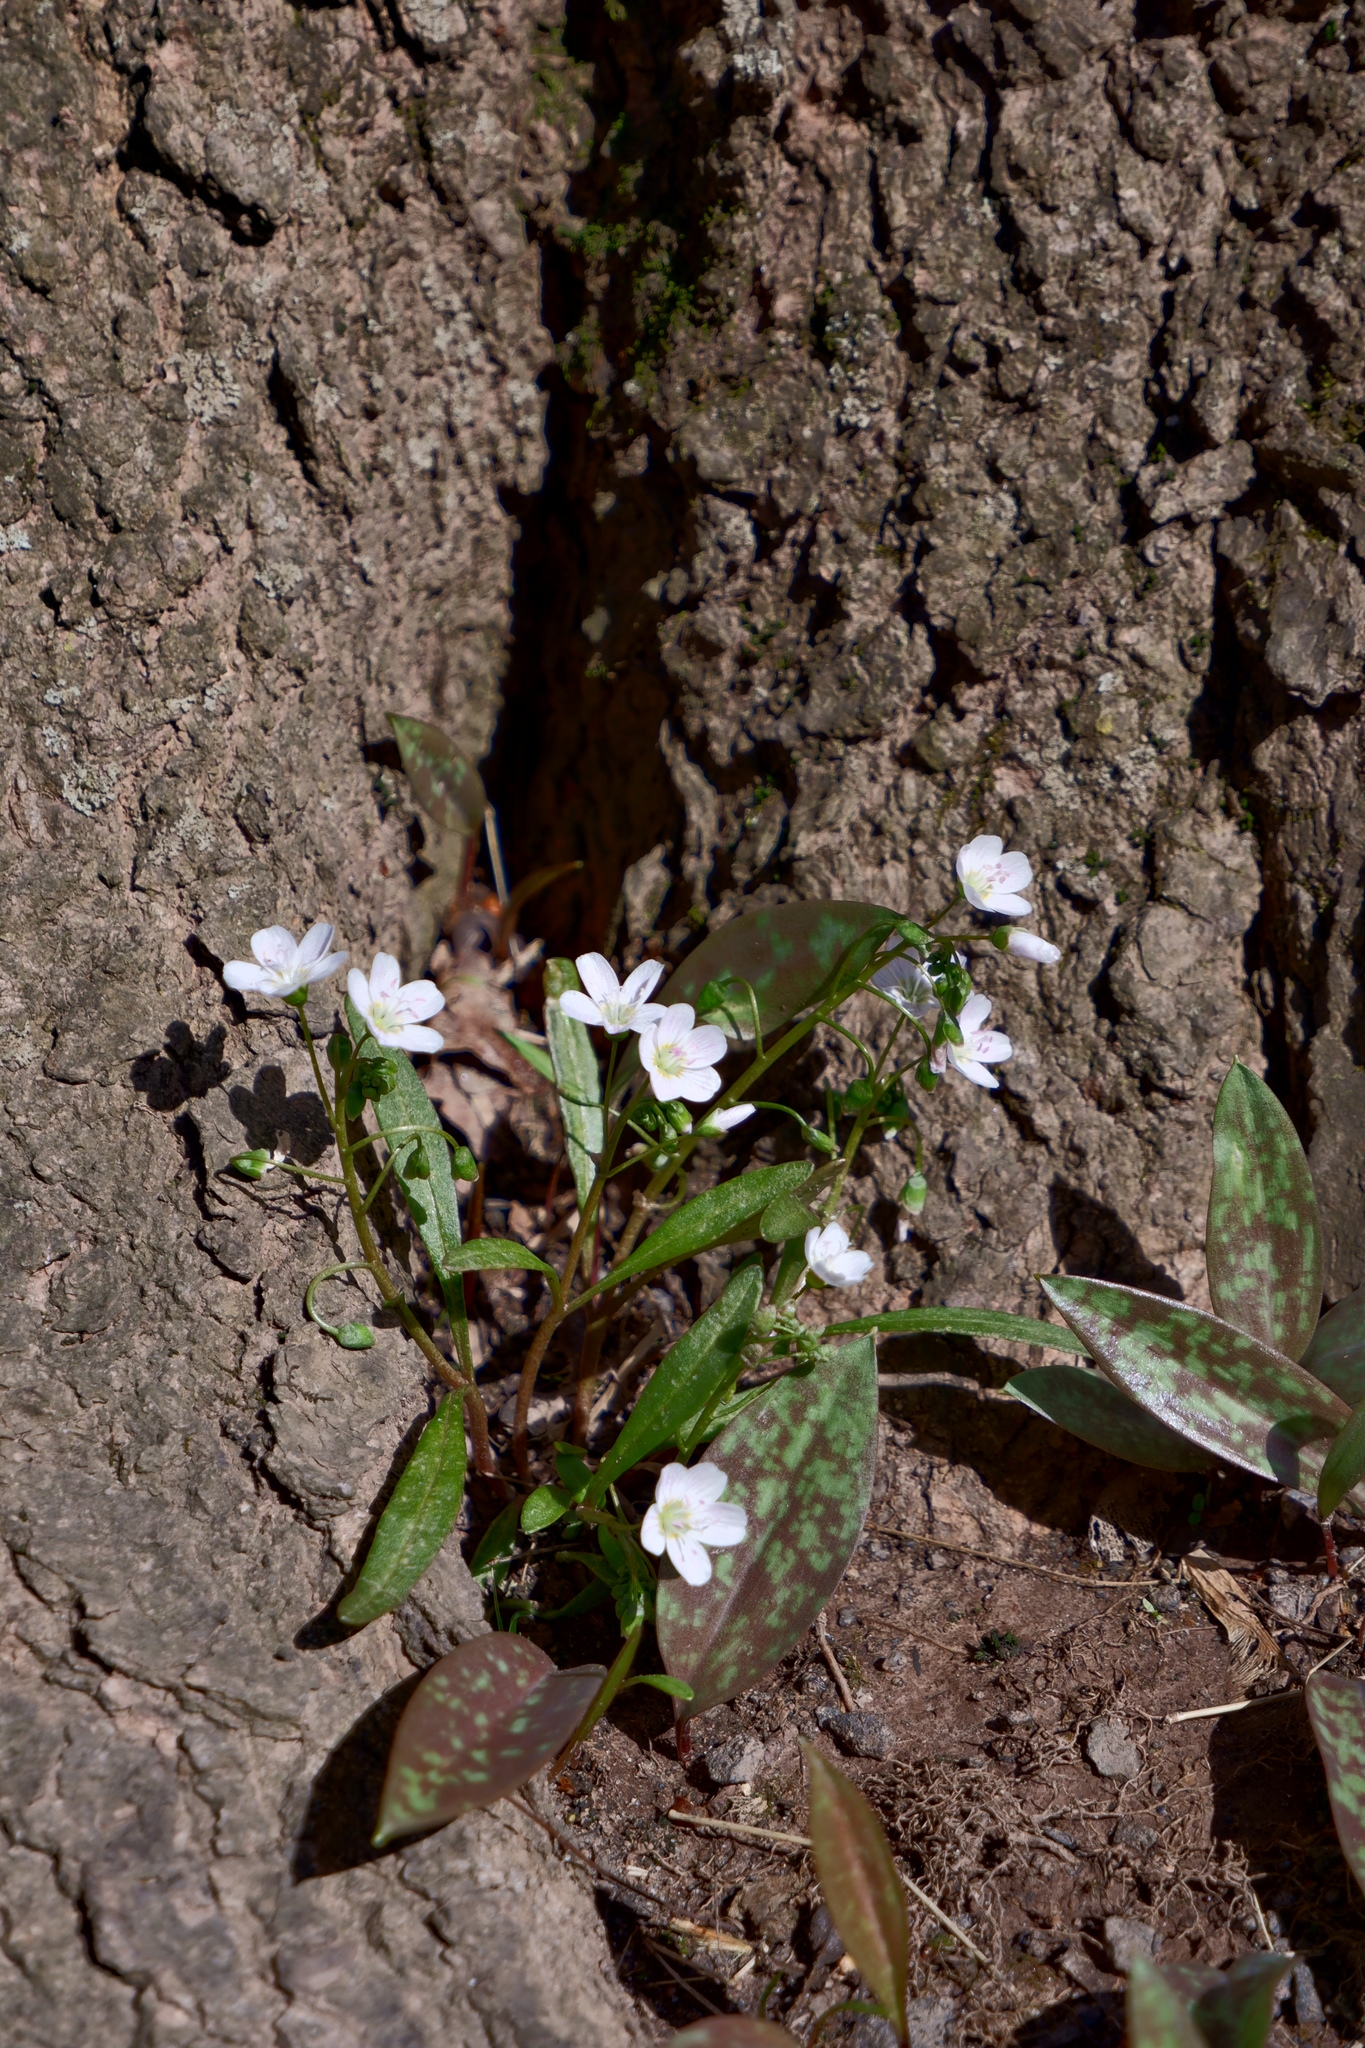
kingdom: Plantae
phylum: Tracheophyta
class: Magnoliopsida
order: Caryophyllales
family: Montiaceae
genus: Claytonia
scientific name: Claytonia virginica
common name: Virginia springbeauty
